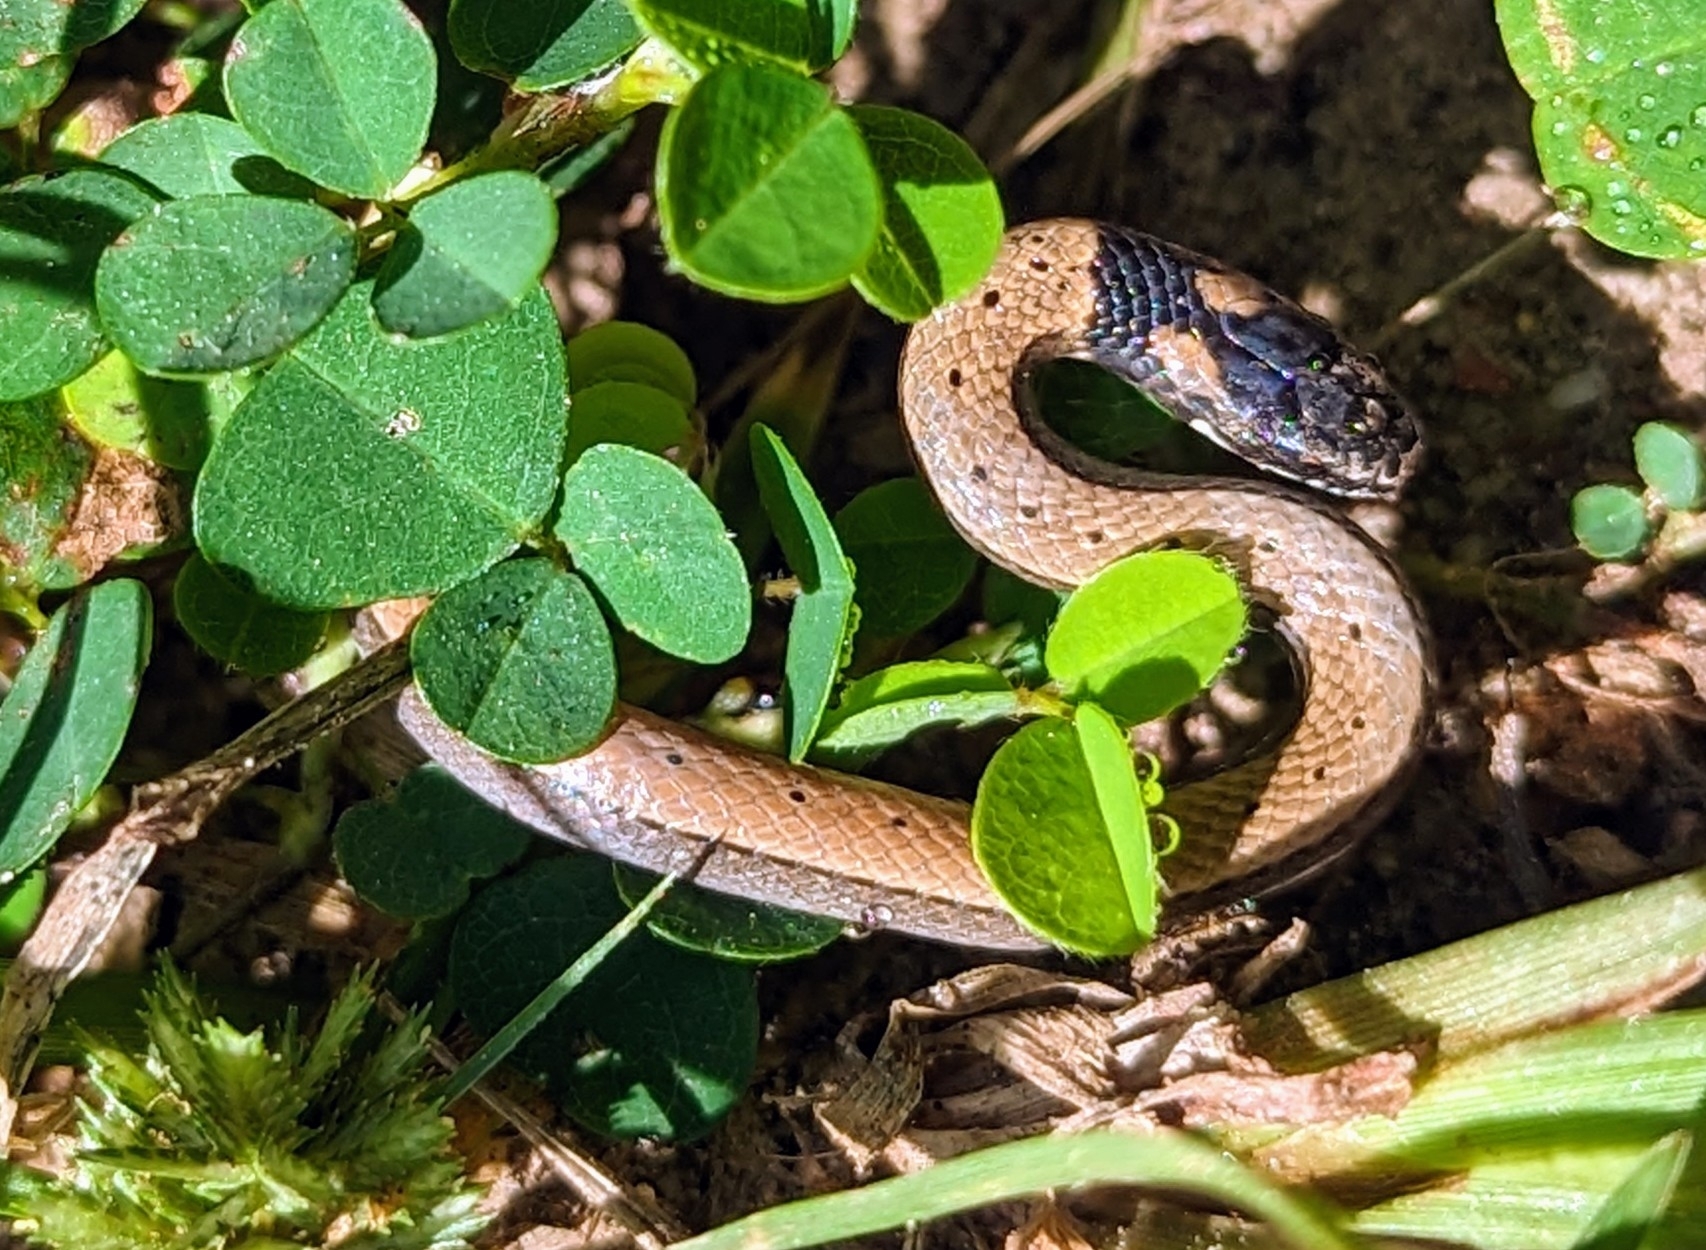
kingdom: Animalia
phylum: Chordata
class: Squamata
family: Colubridae
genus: Sibynophis
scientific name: Sibynophis sagittarius
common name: Cantor’s black-headed snake
